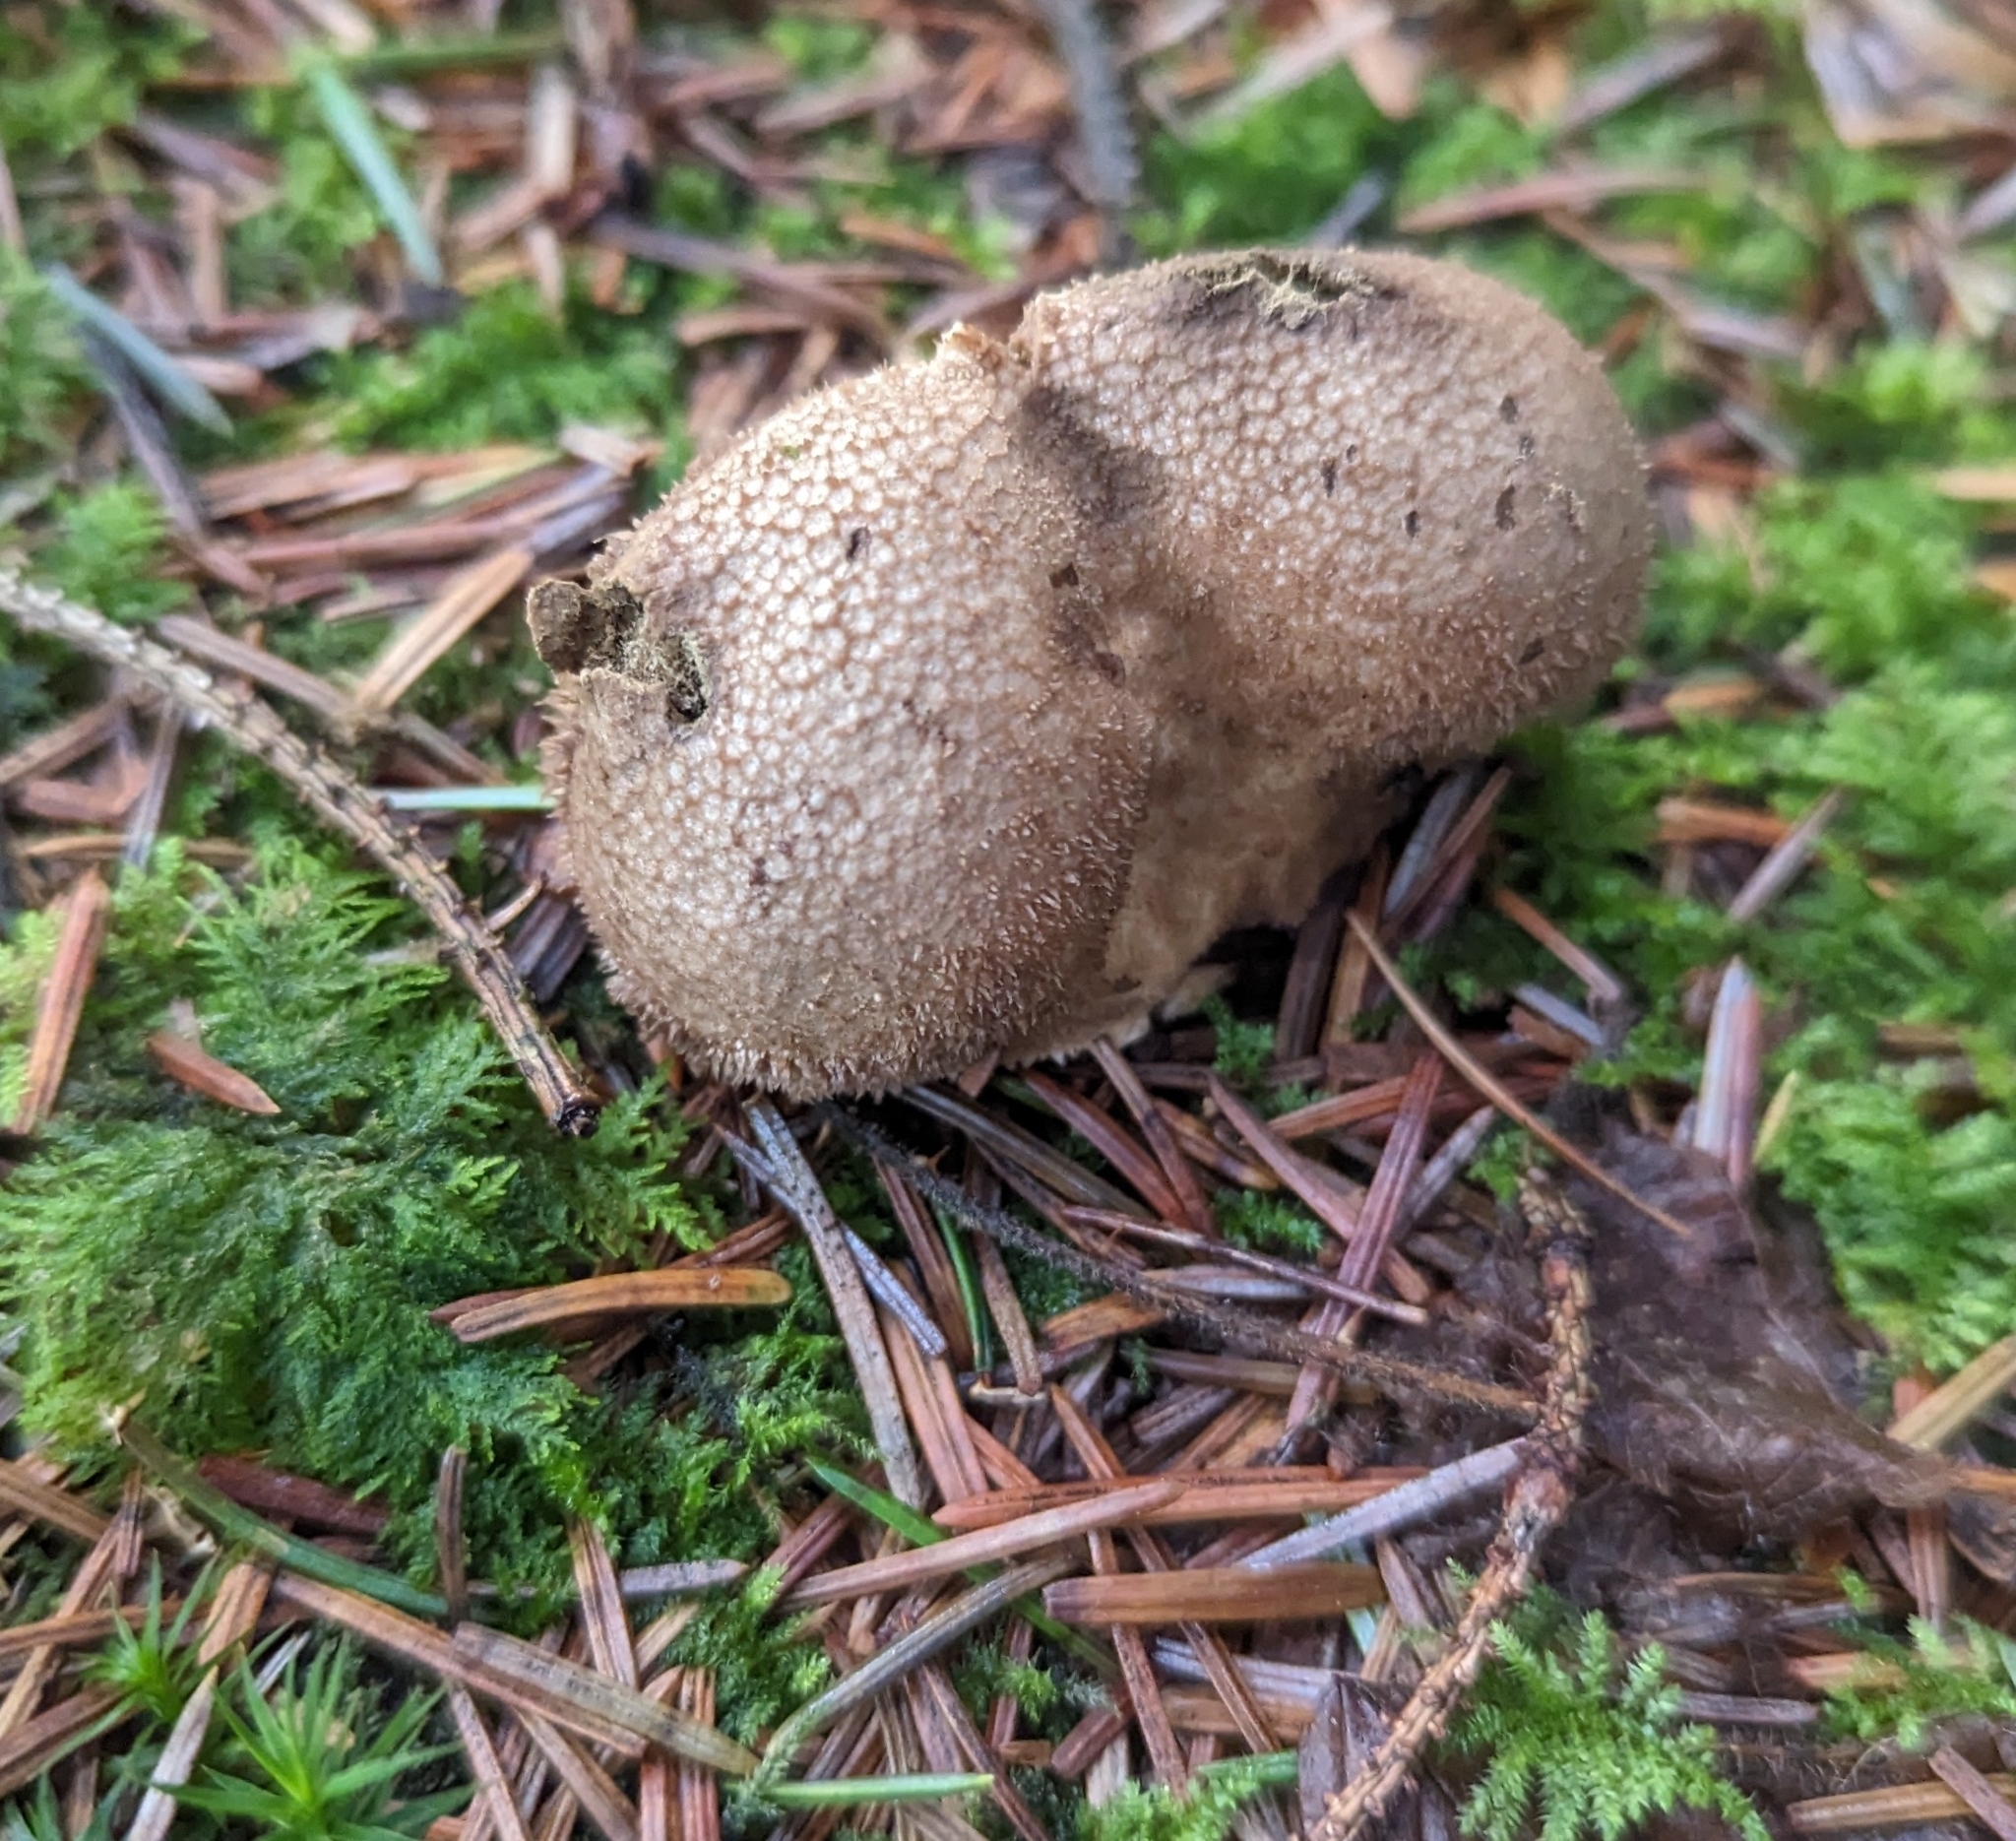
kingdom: Fungi
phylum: Basidiomycota
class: Agaricomycetes
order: Agaricales
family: Lycoperdaceae
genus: Lycoperdon
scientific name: Lycoperdon perlatum
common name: Common puffball
